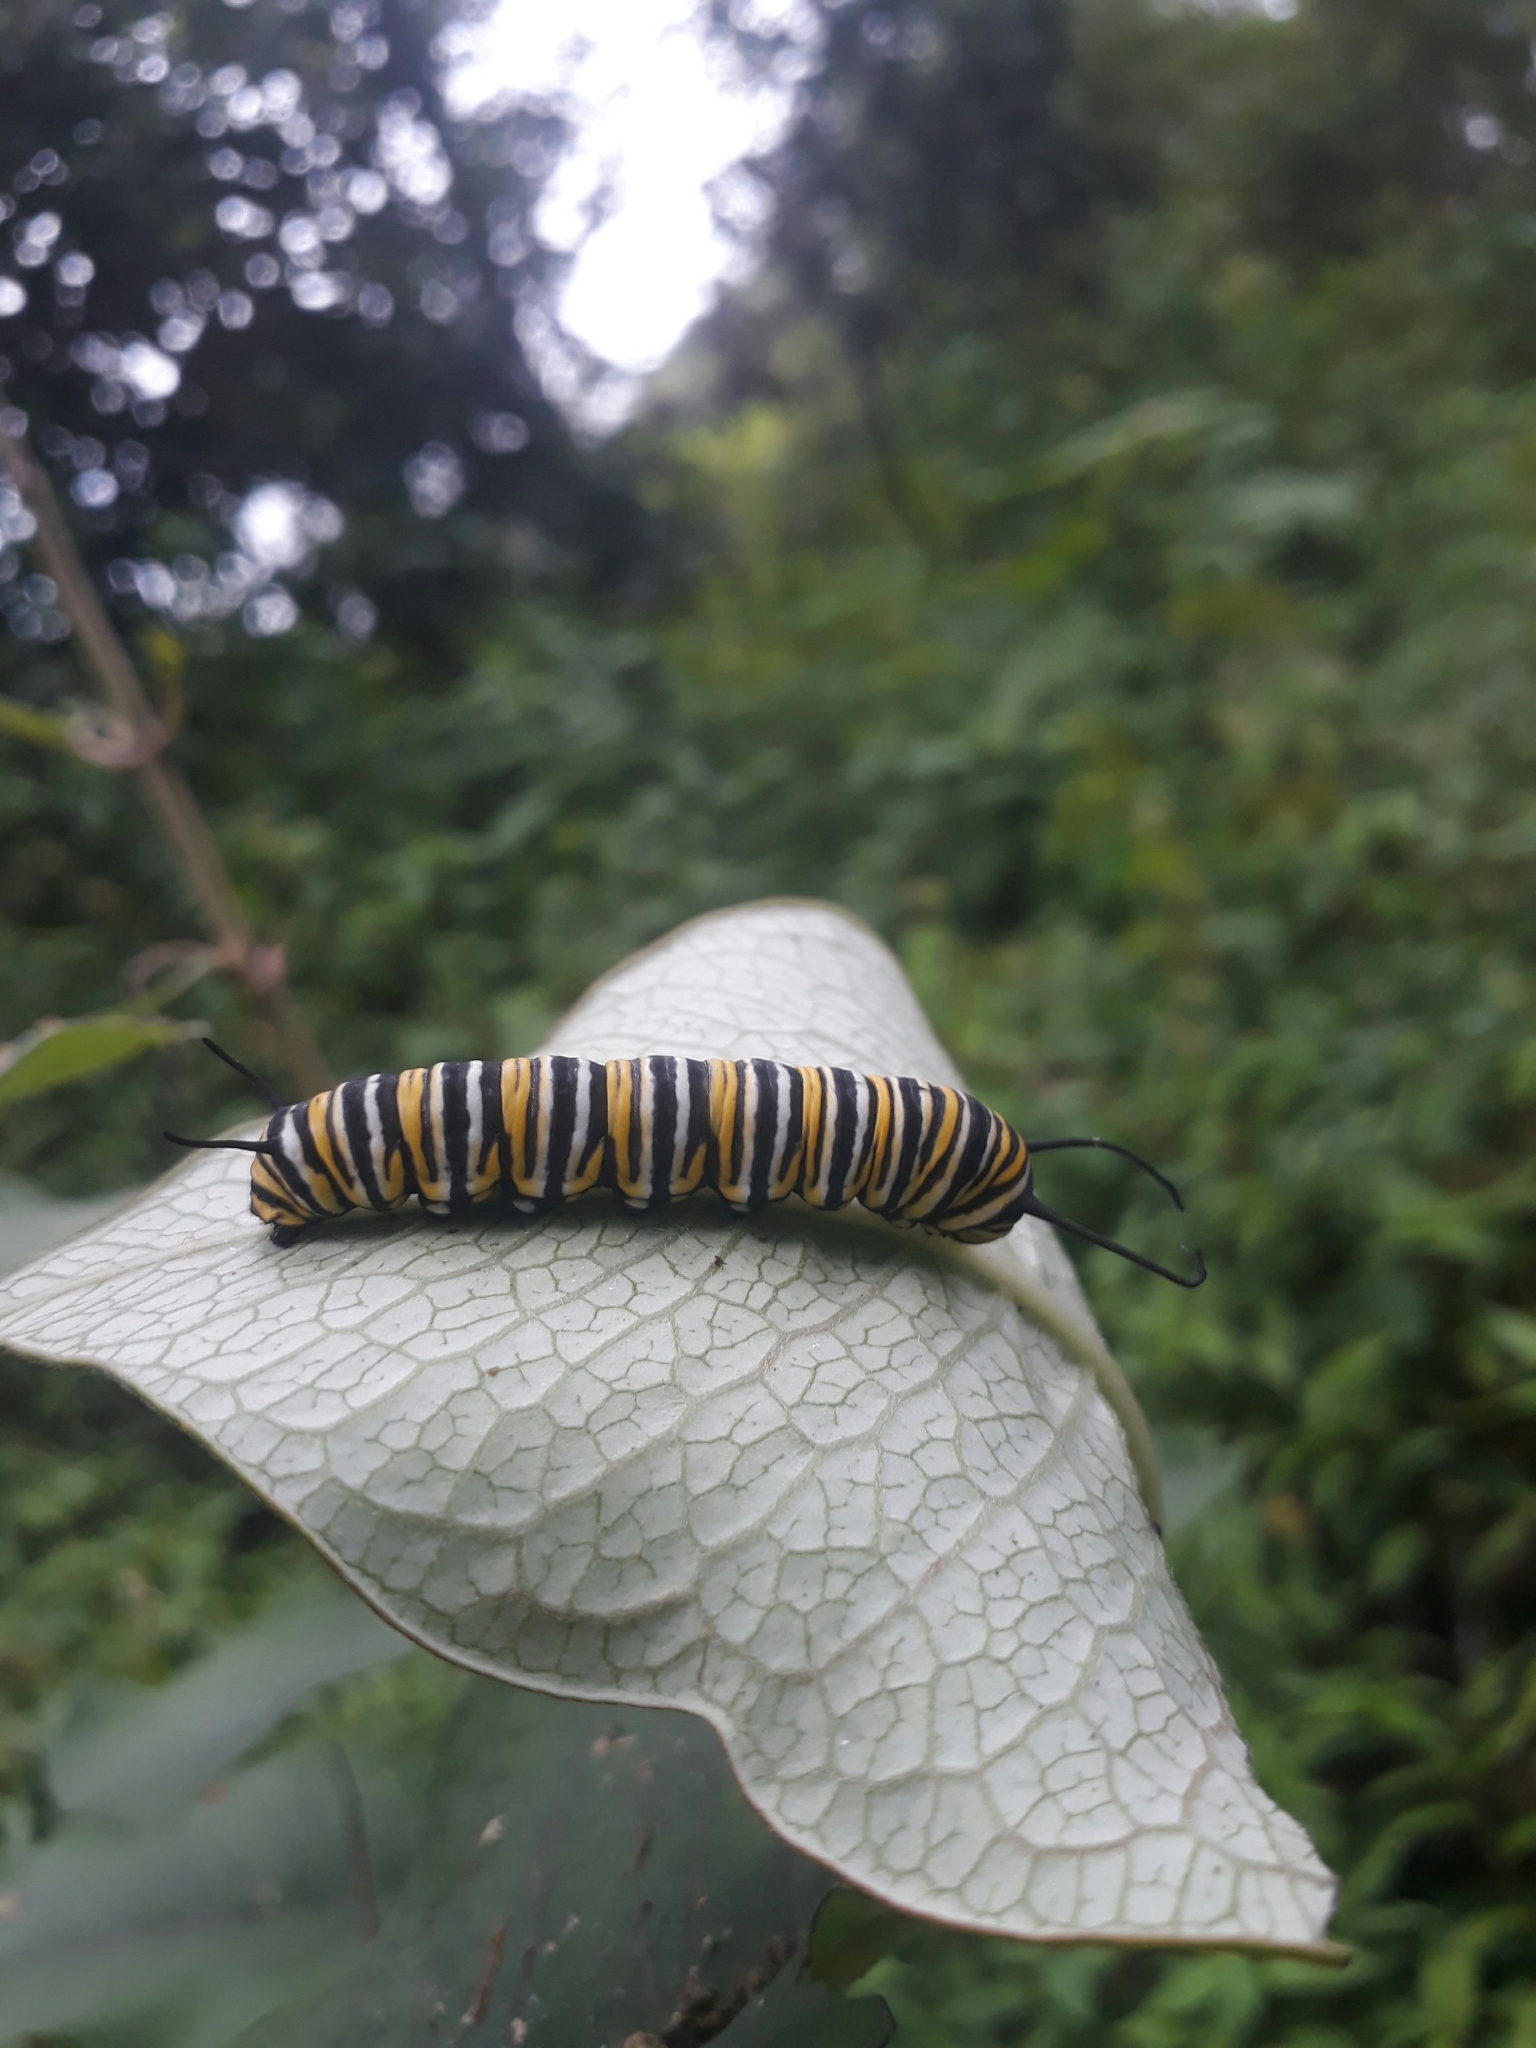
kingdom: Animalia
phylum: Arthropoda
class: Insecta
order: Lepidoptera
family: Nymphalidae
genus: Danaus
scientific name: Danaus plexippus
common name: Monarch
